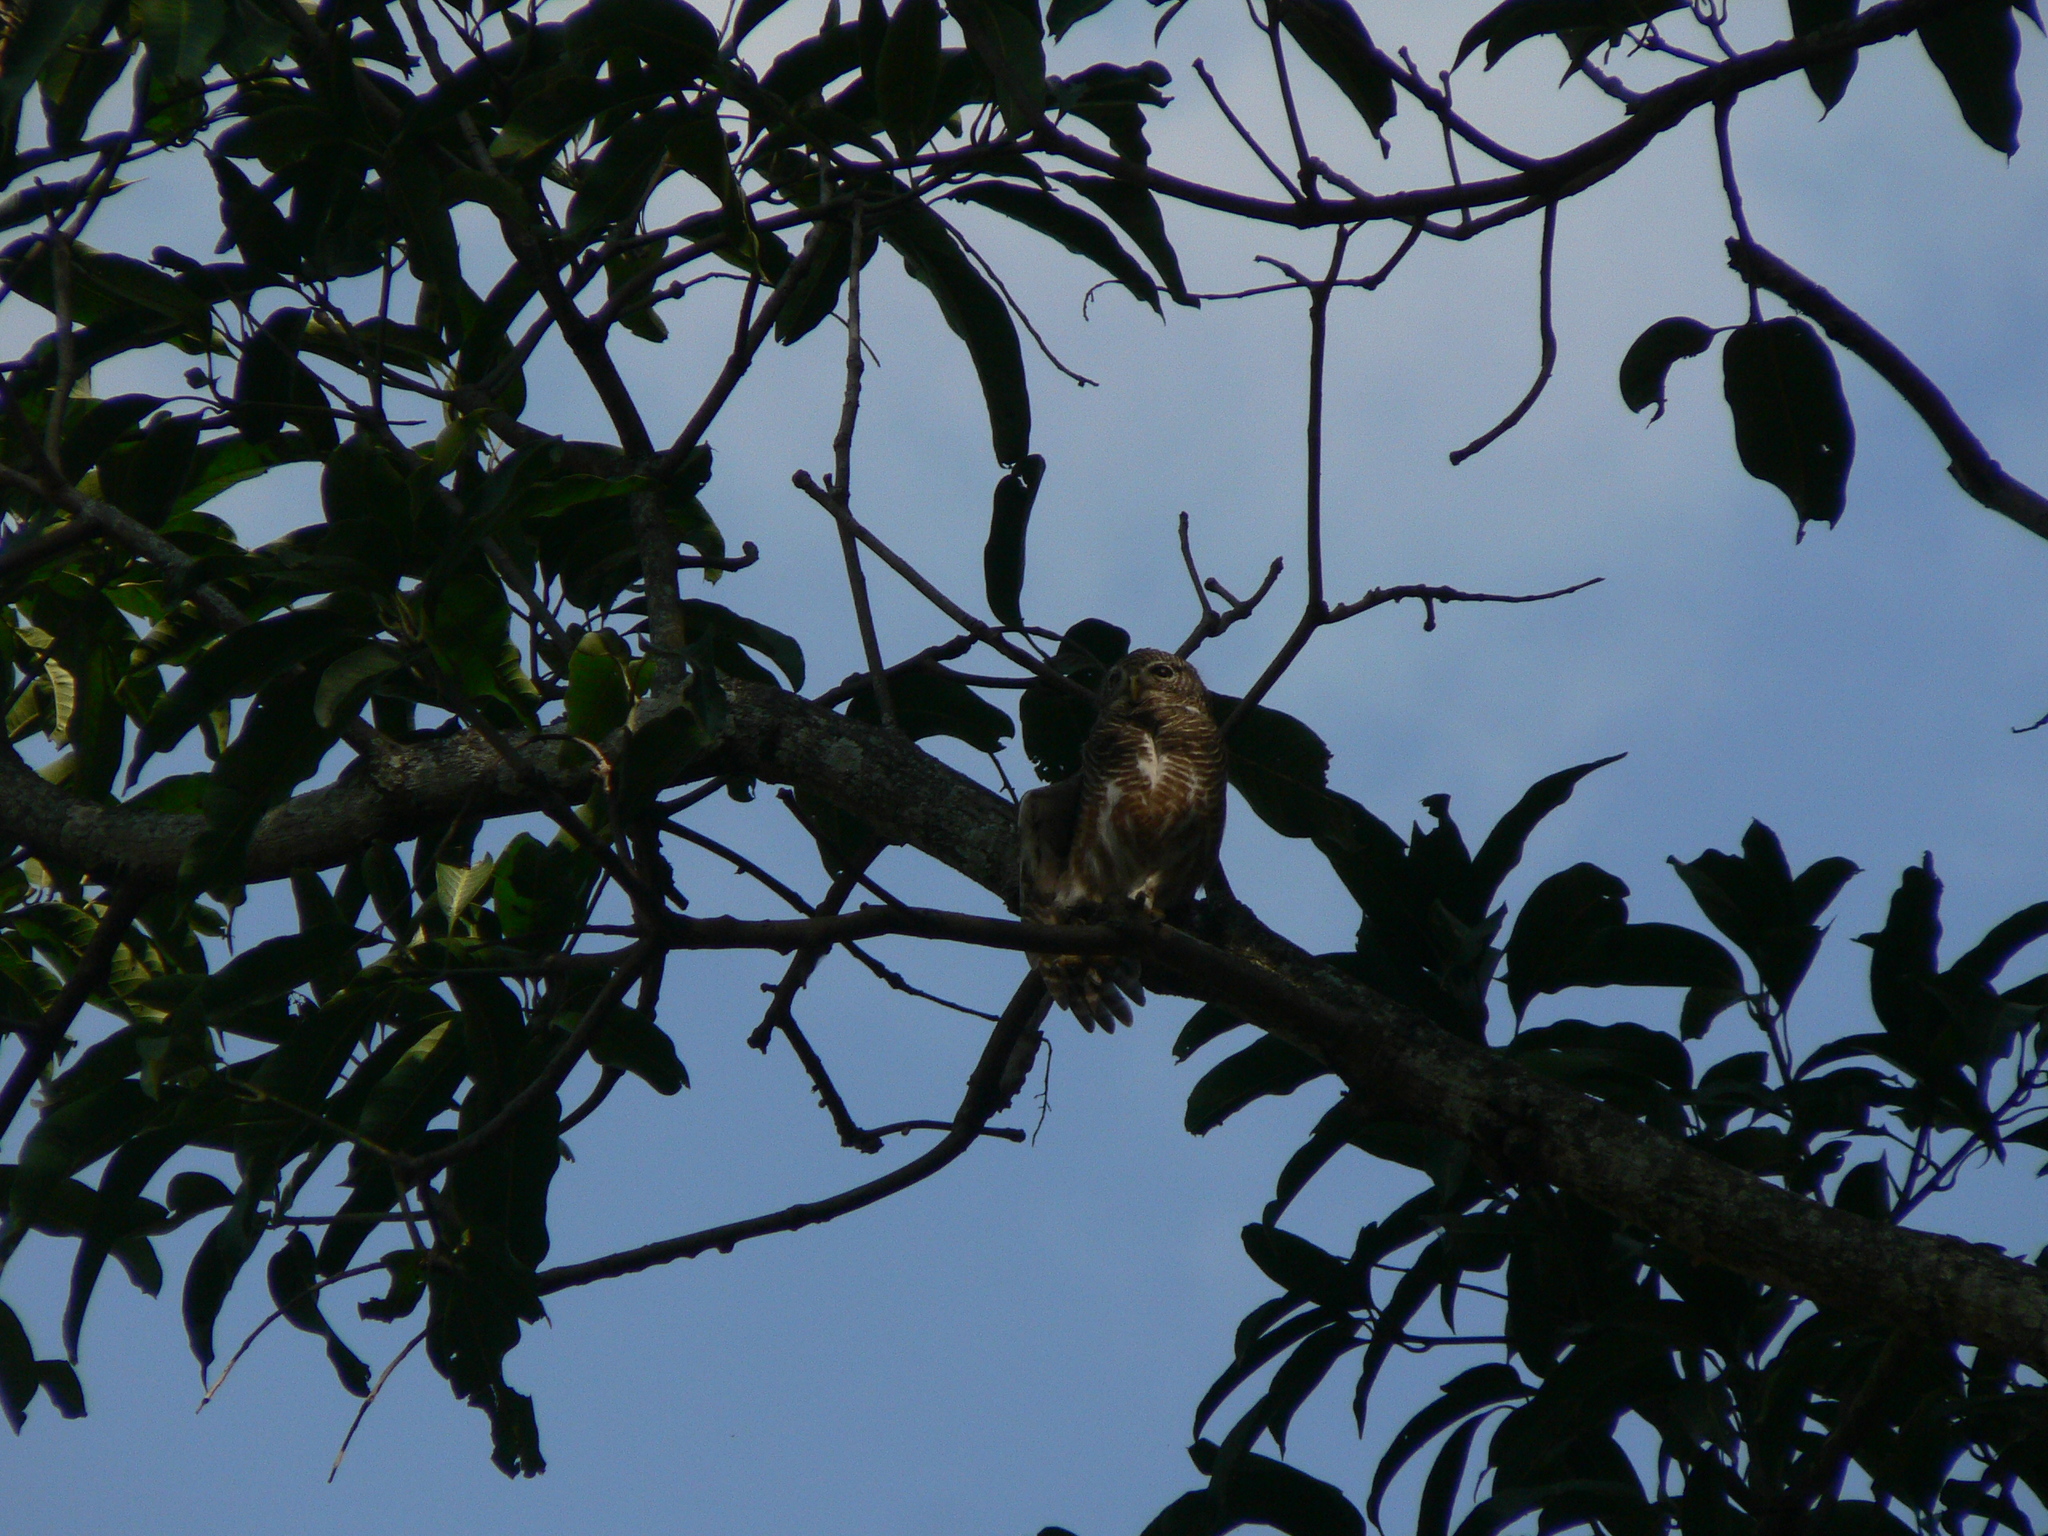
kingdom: Animalia
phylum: Chordata
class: Aves
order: Strigiformes
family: Strigidae
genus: Glaucidium
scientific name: Glaucidium cuculoides
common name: Asian barred owlet
